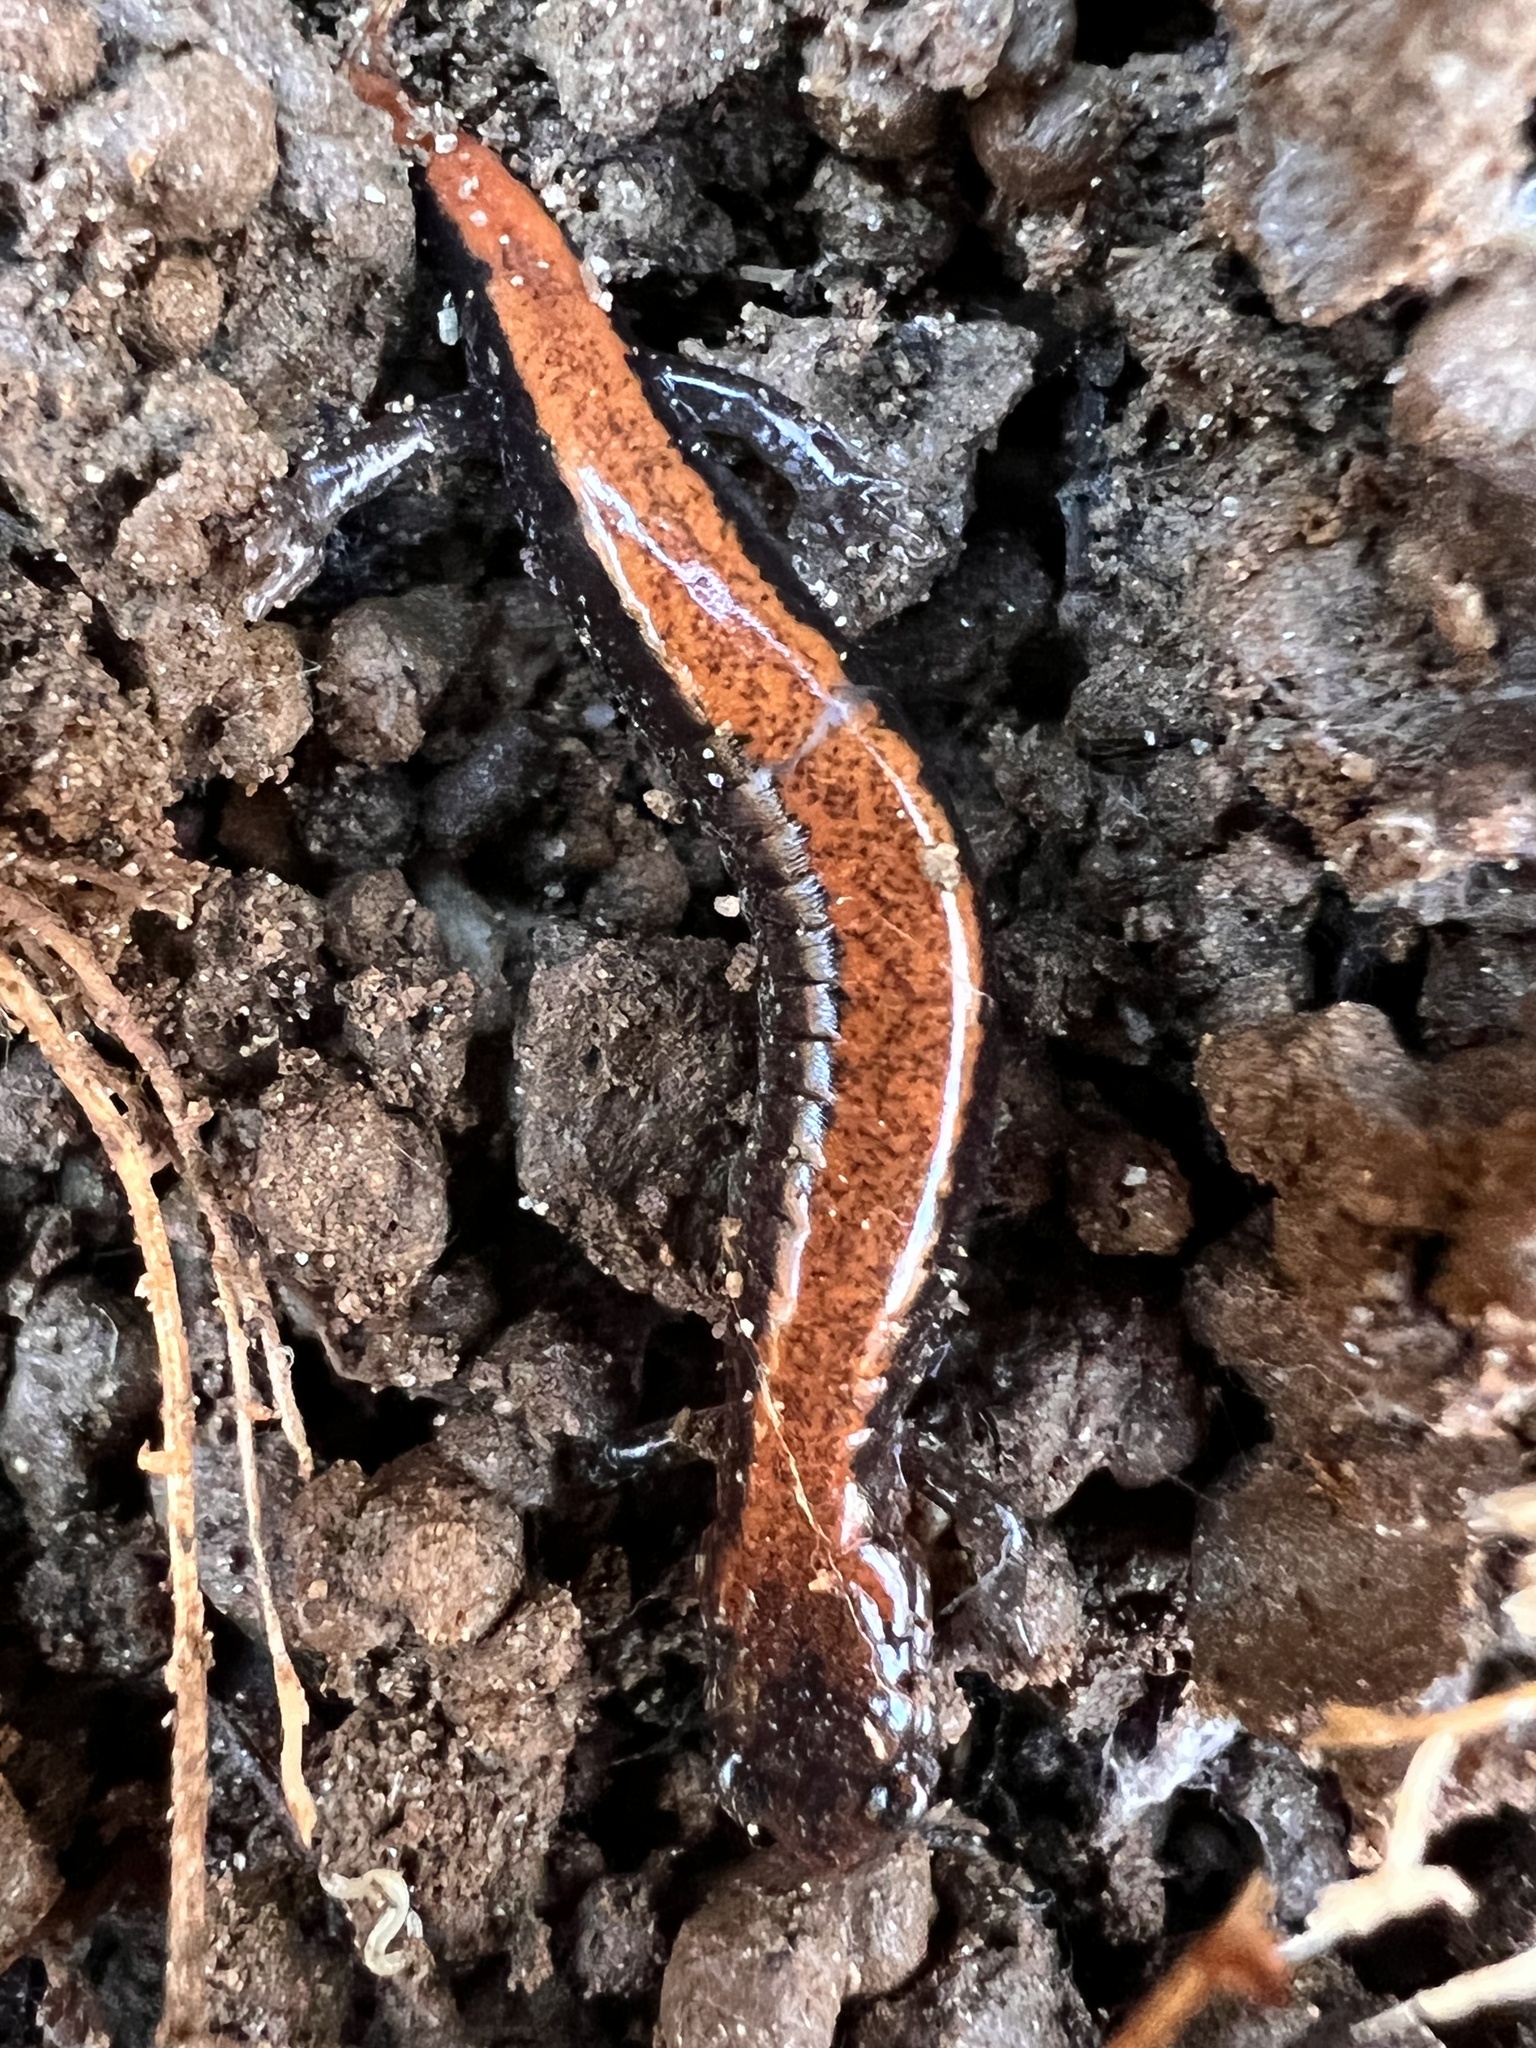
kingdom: Animalia
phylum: Chordata
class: Amphibia
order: Caudata
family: Plethodontidae
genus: Plethodon
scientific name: Plethodon cinereus
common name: Redback salamander
